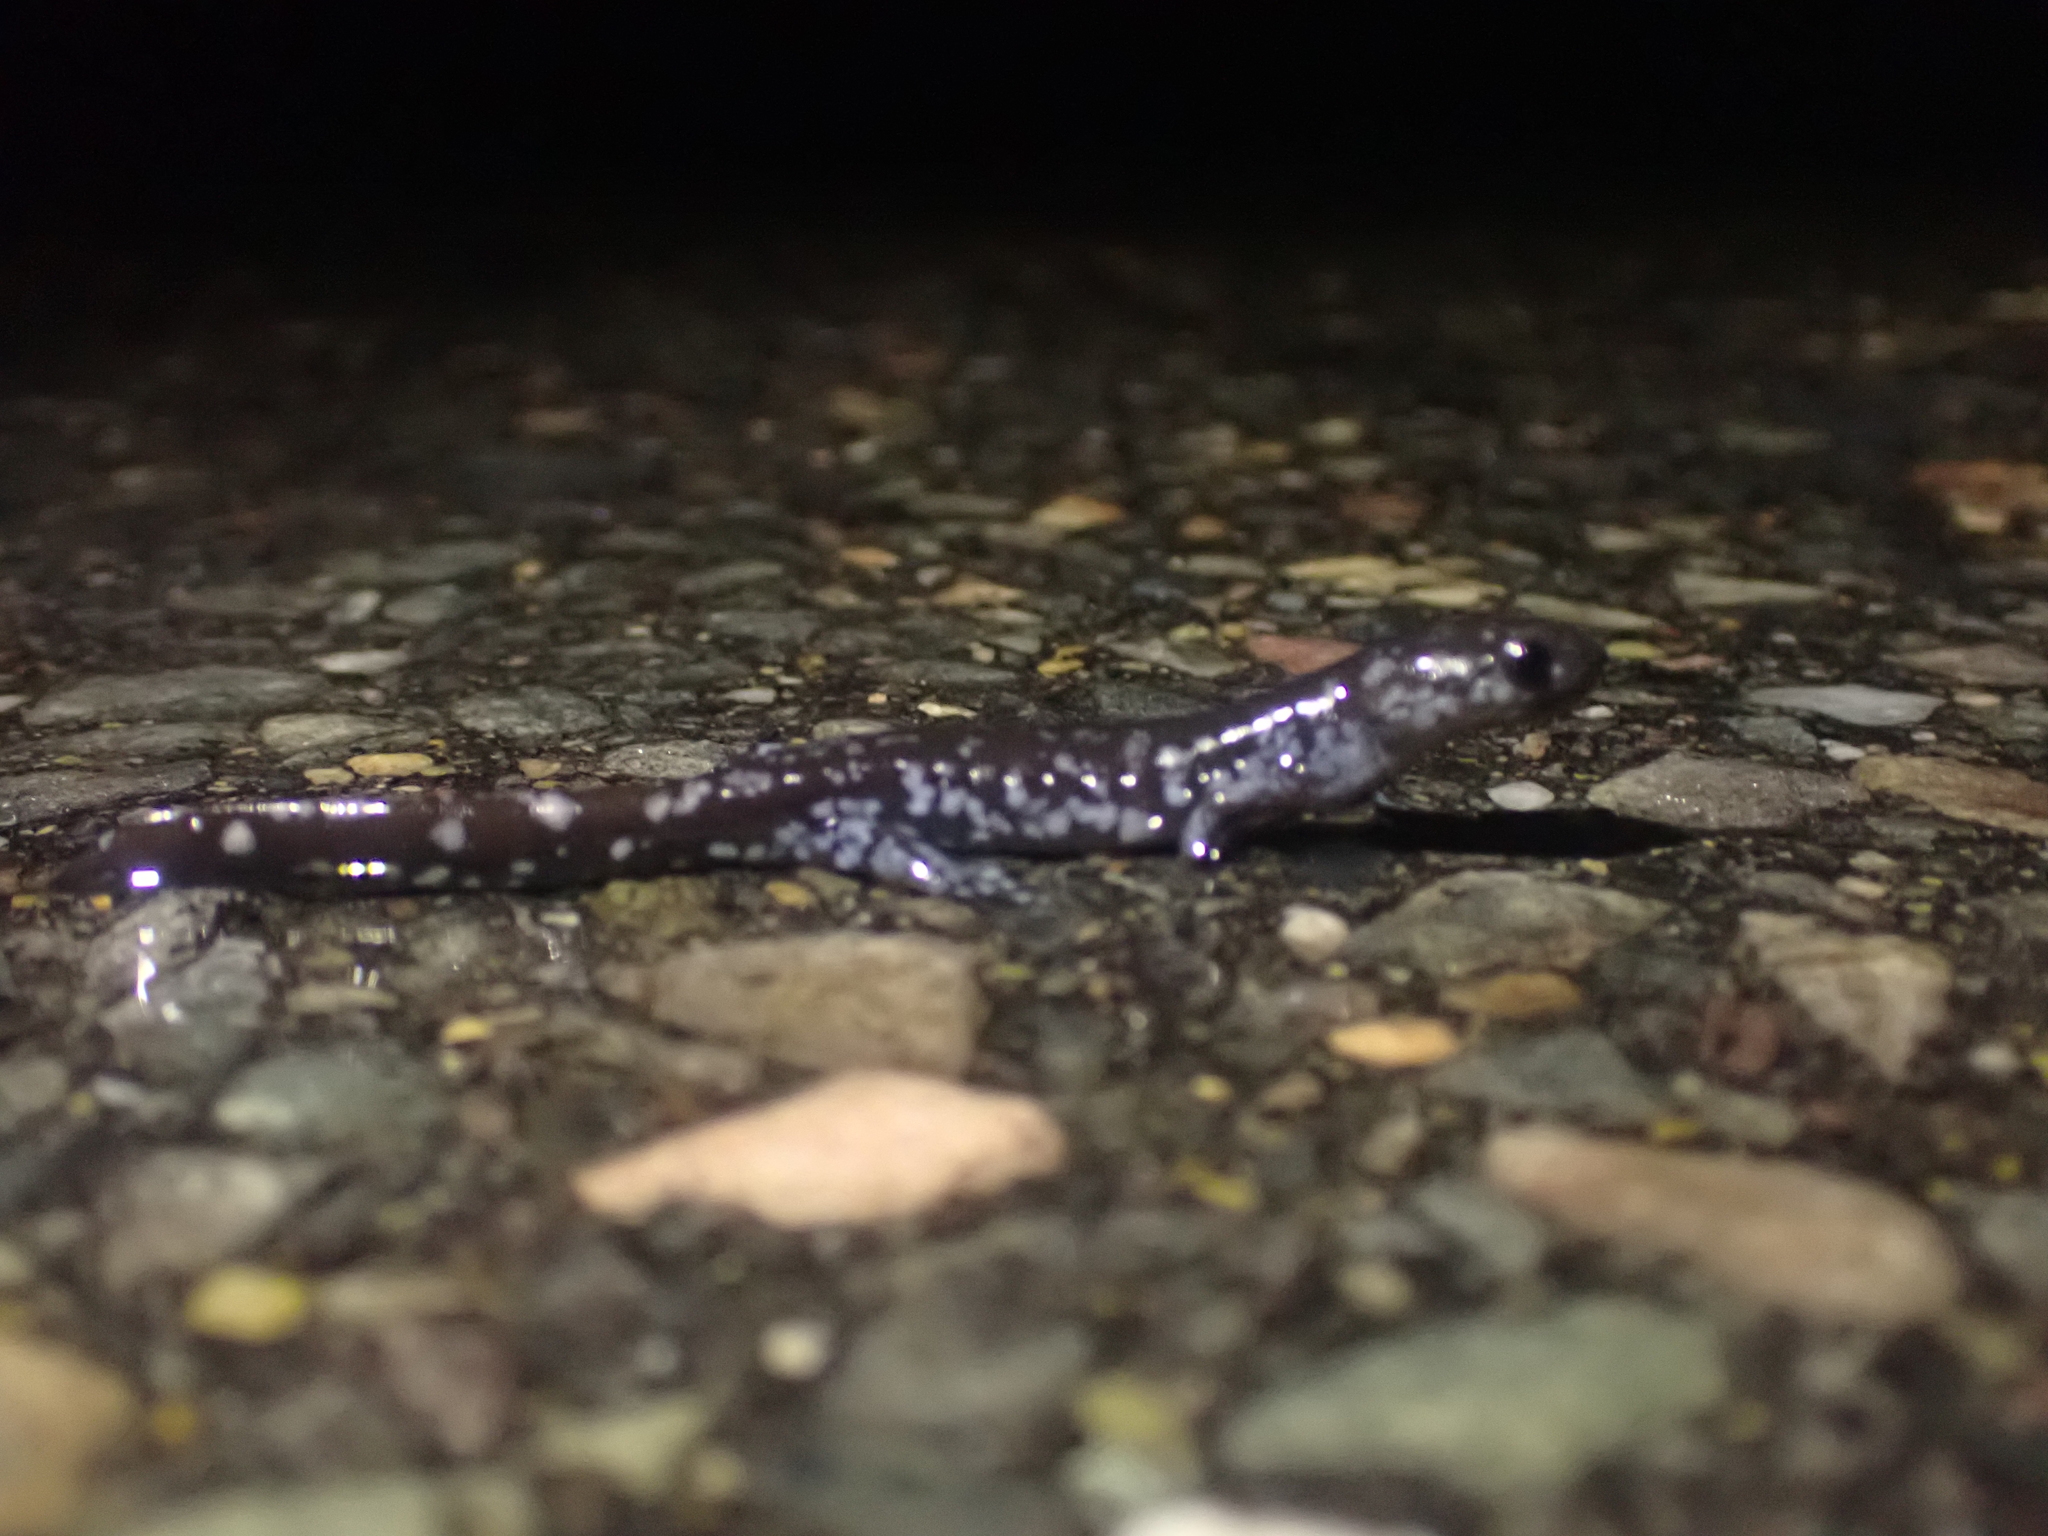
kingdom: Animalia
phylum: Chordata
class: Amphibia
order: Caudata
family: Ambystomatidae
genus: Ambystoma
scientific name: Ambystoma laterale
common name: Blue-spotted salamander
